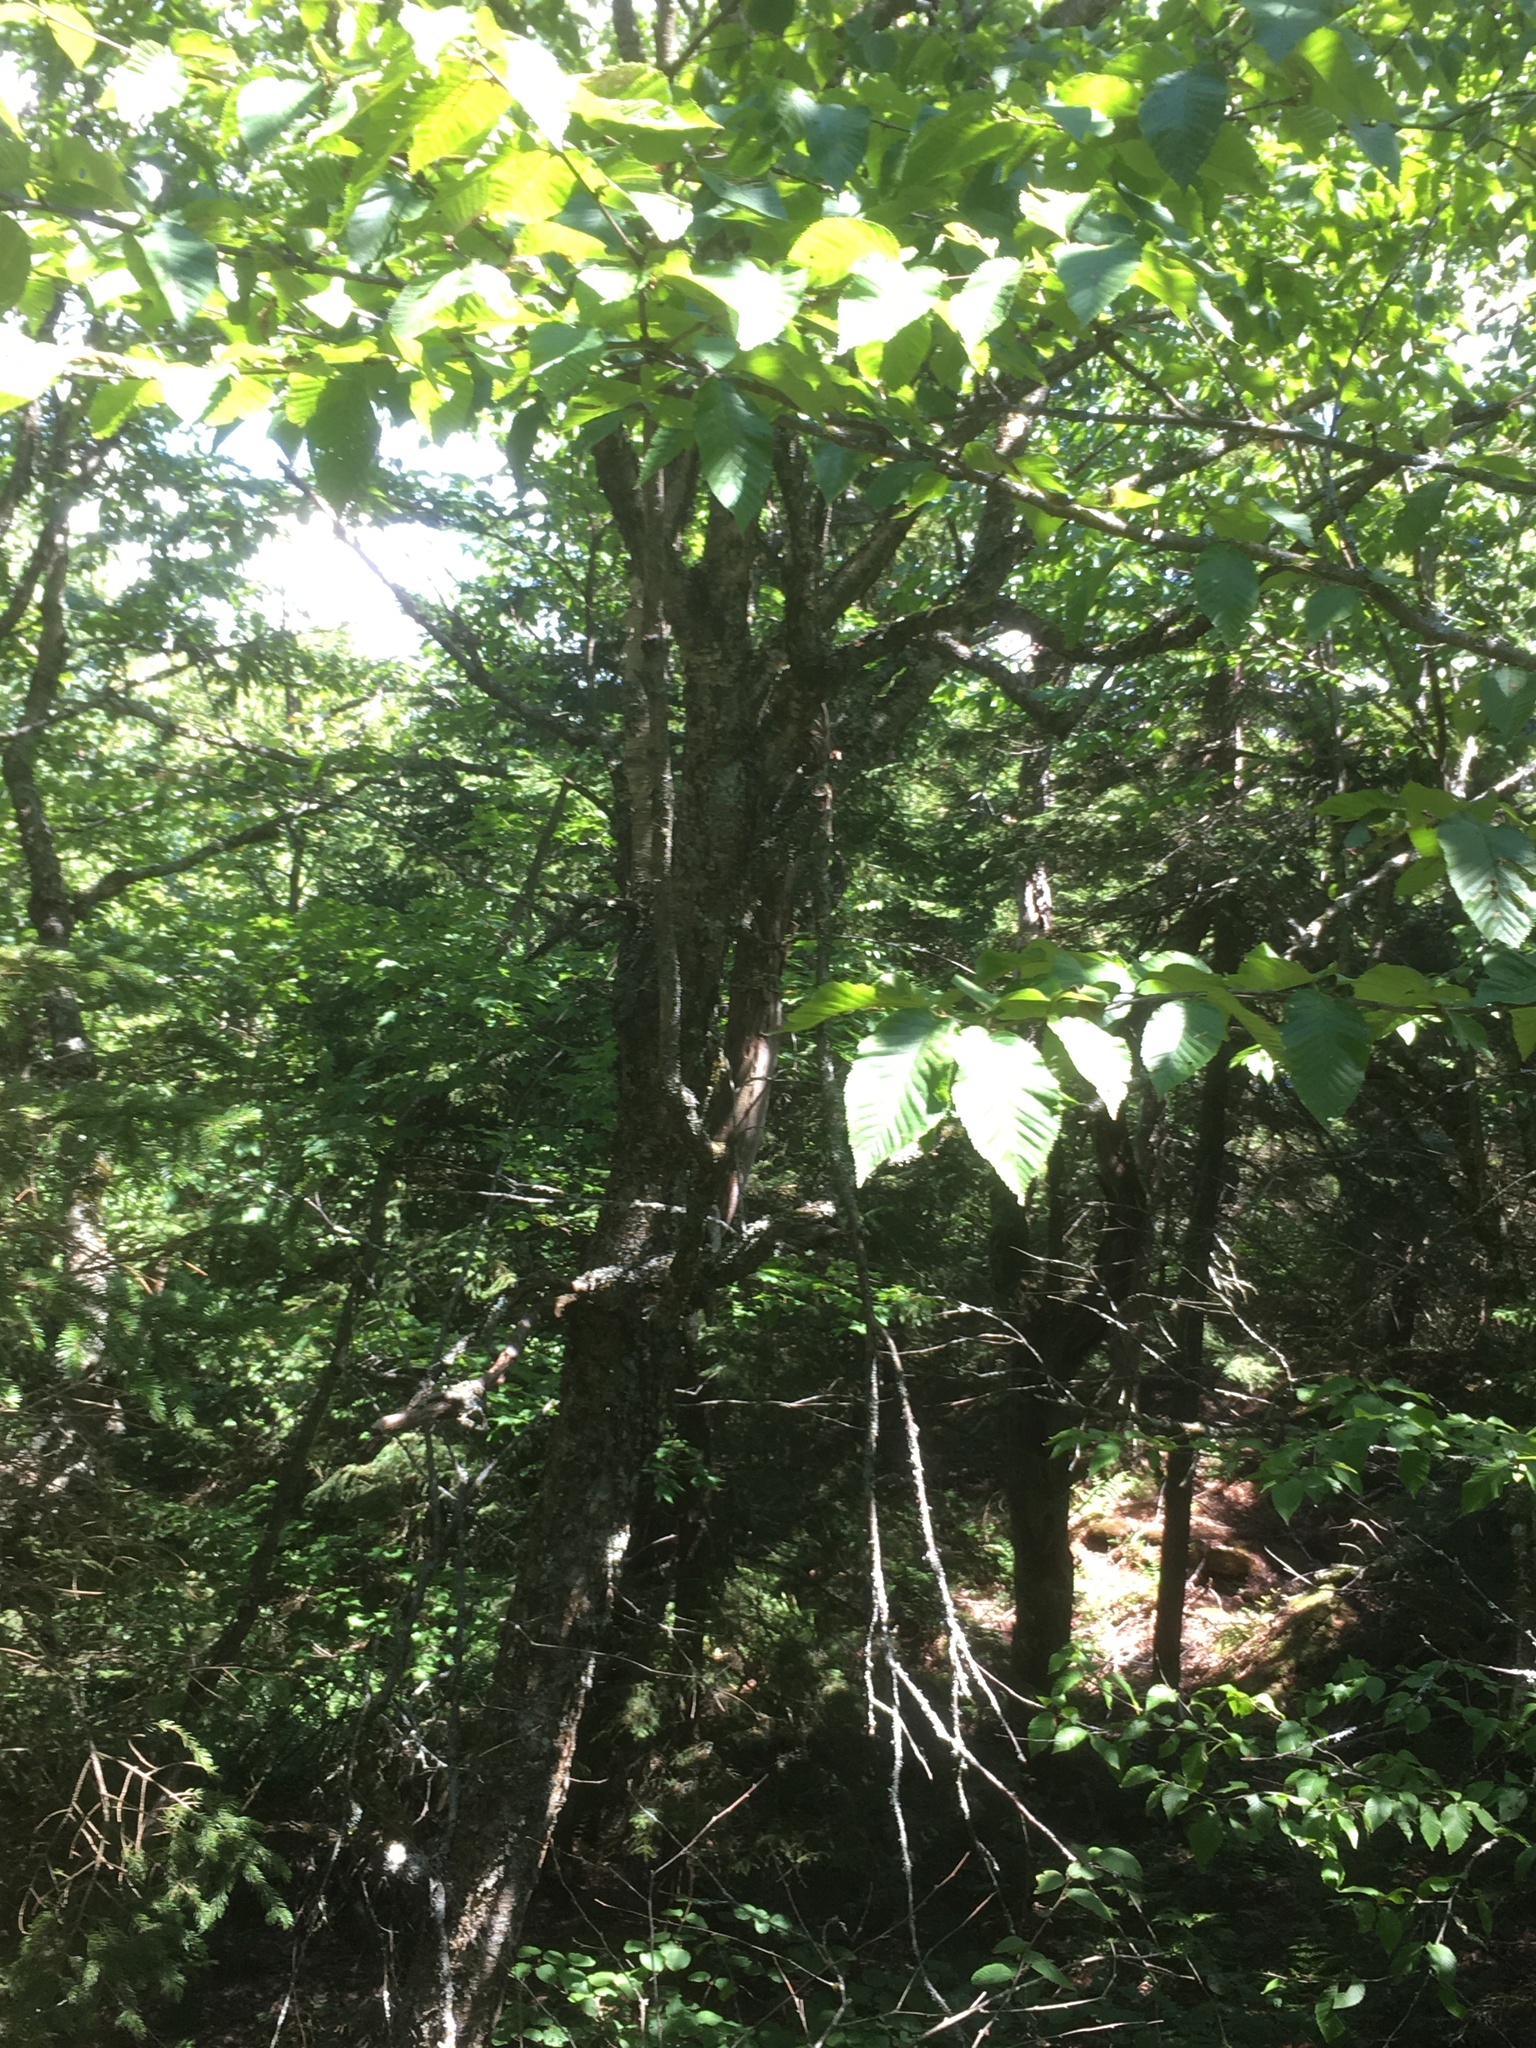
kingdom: Plantae
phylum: Tracheophyta
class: Magnoliopsida
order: Fagales
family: Betulaceae
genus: Betula
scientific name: Betula alleghaniensis
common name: Yellow birch
